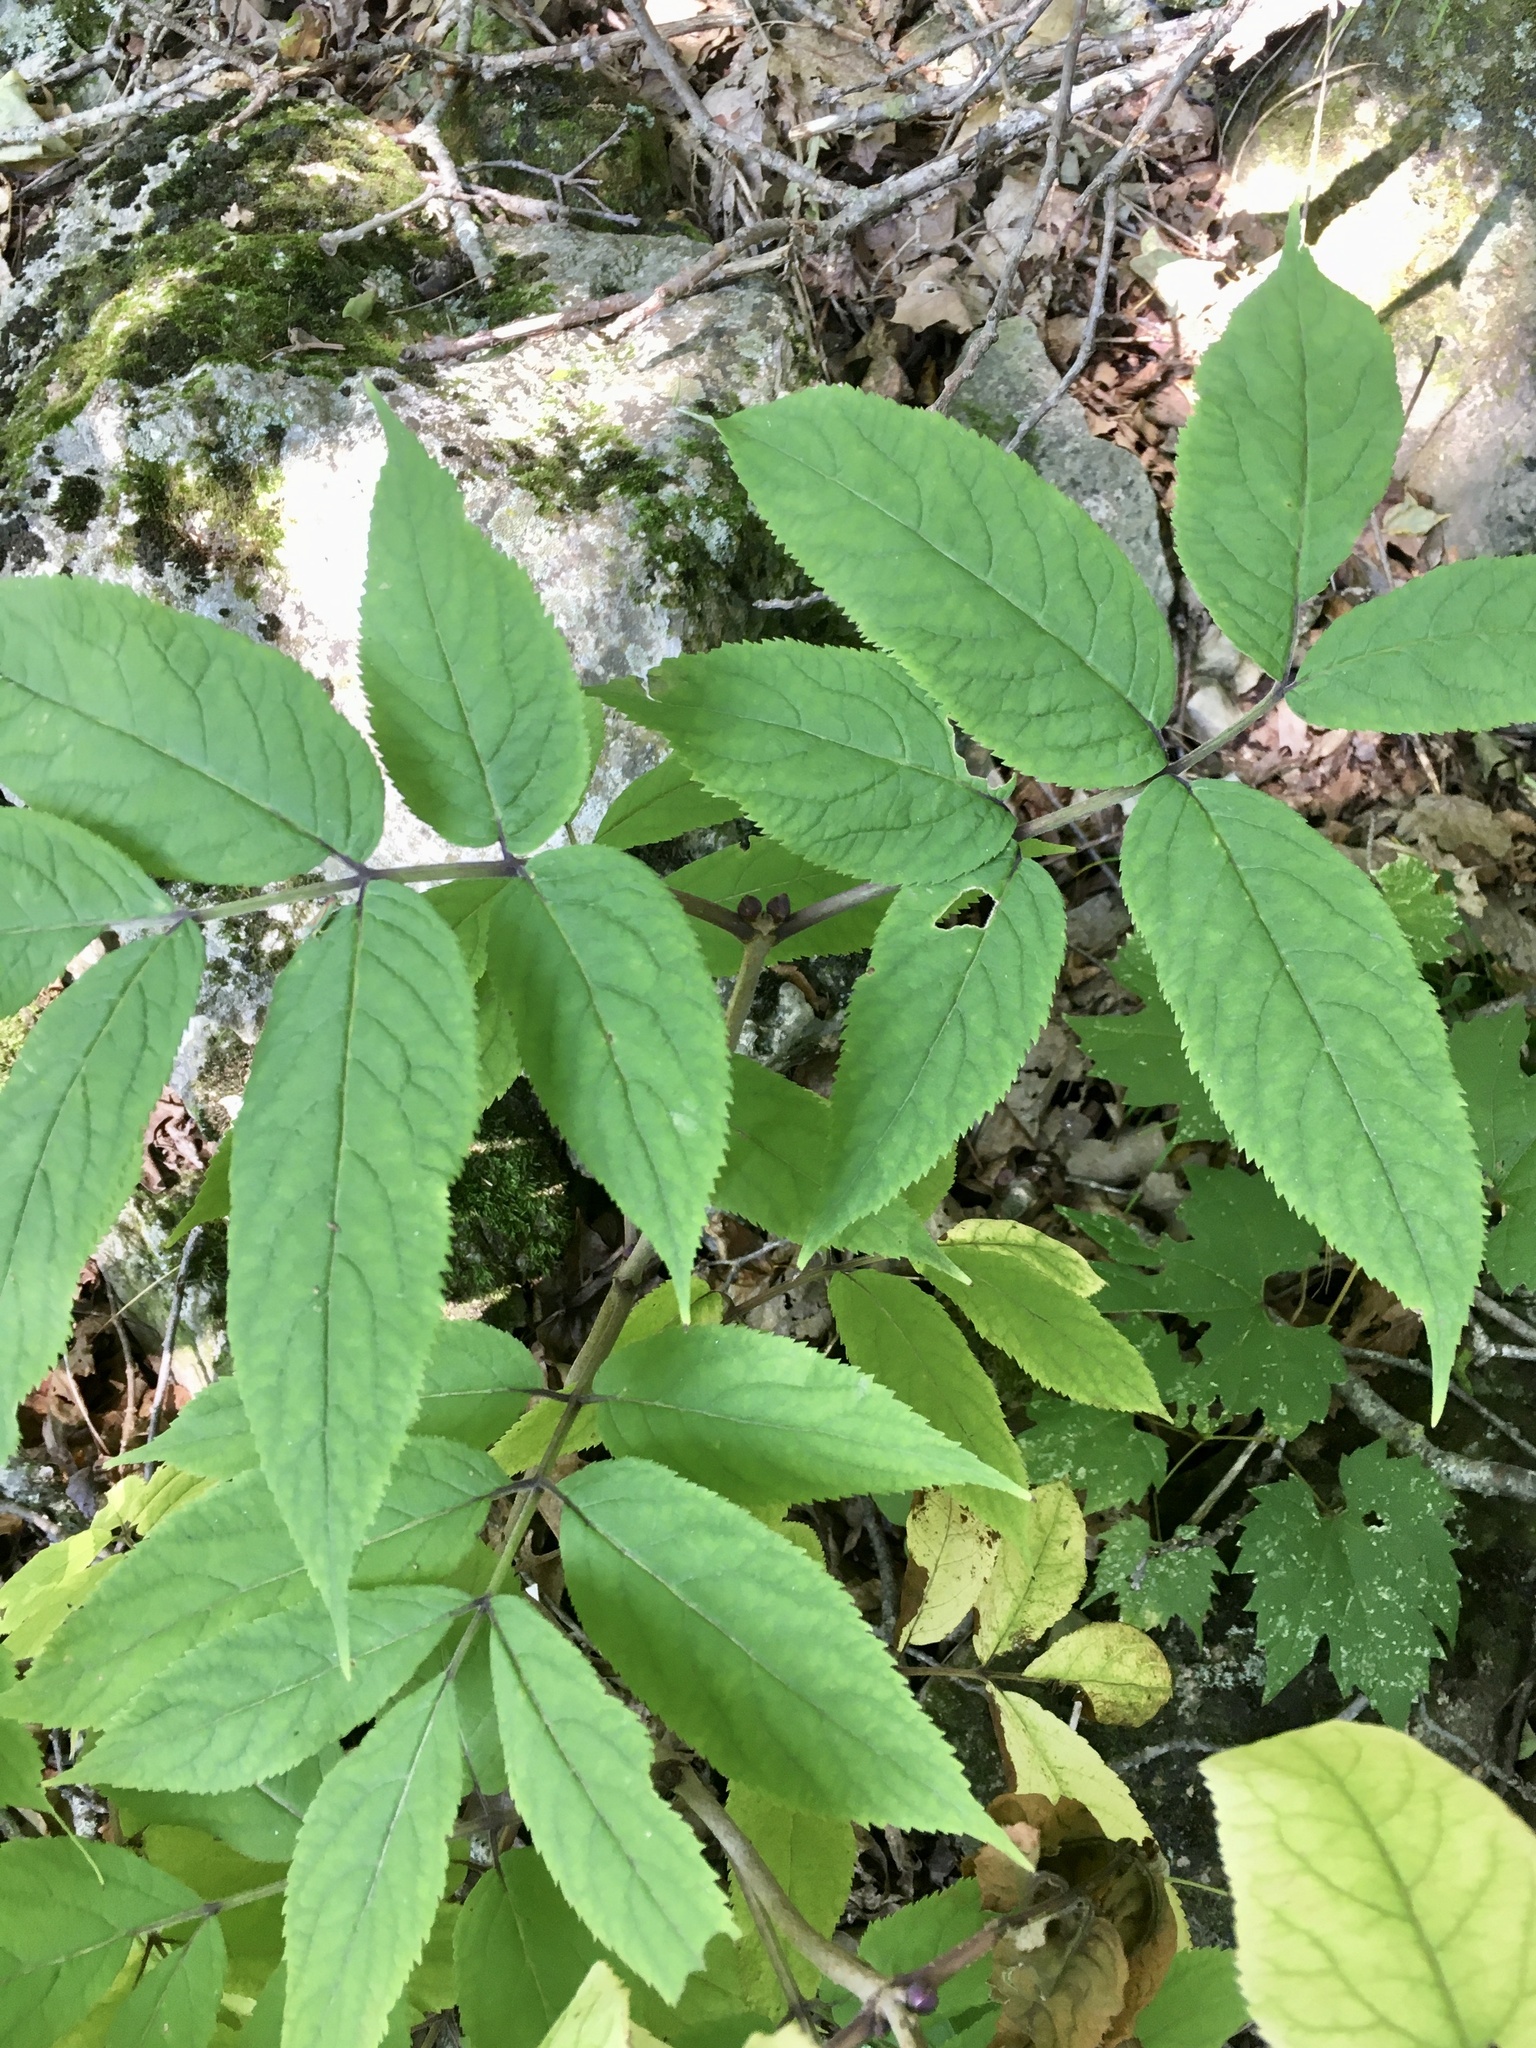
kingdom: Plantae
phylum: Tracheophyta
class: Magnoliopsida
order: Dipsacales
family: Viburnaceae
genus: Sambucus
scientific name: Sambucus racemosa
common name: Red-berried elder
